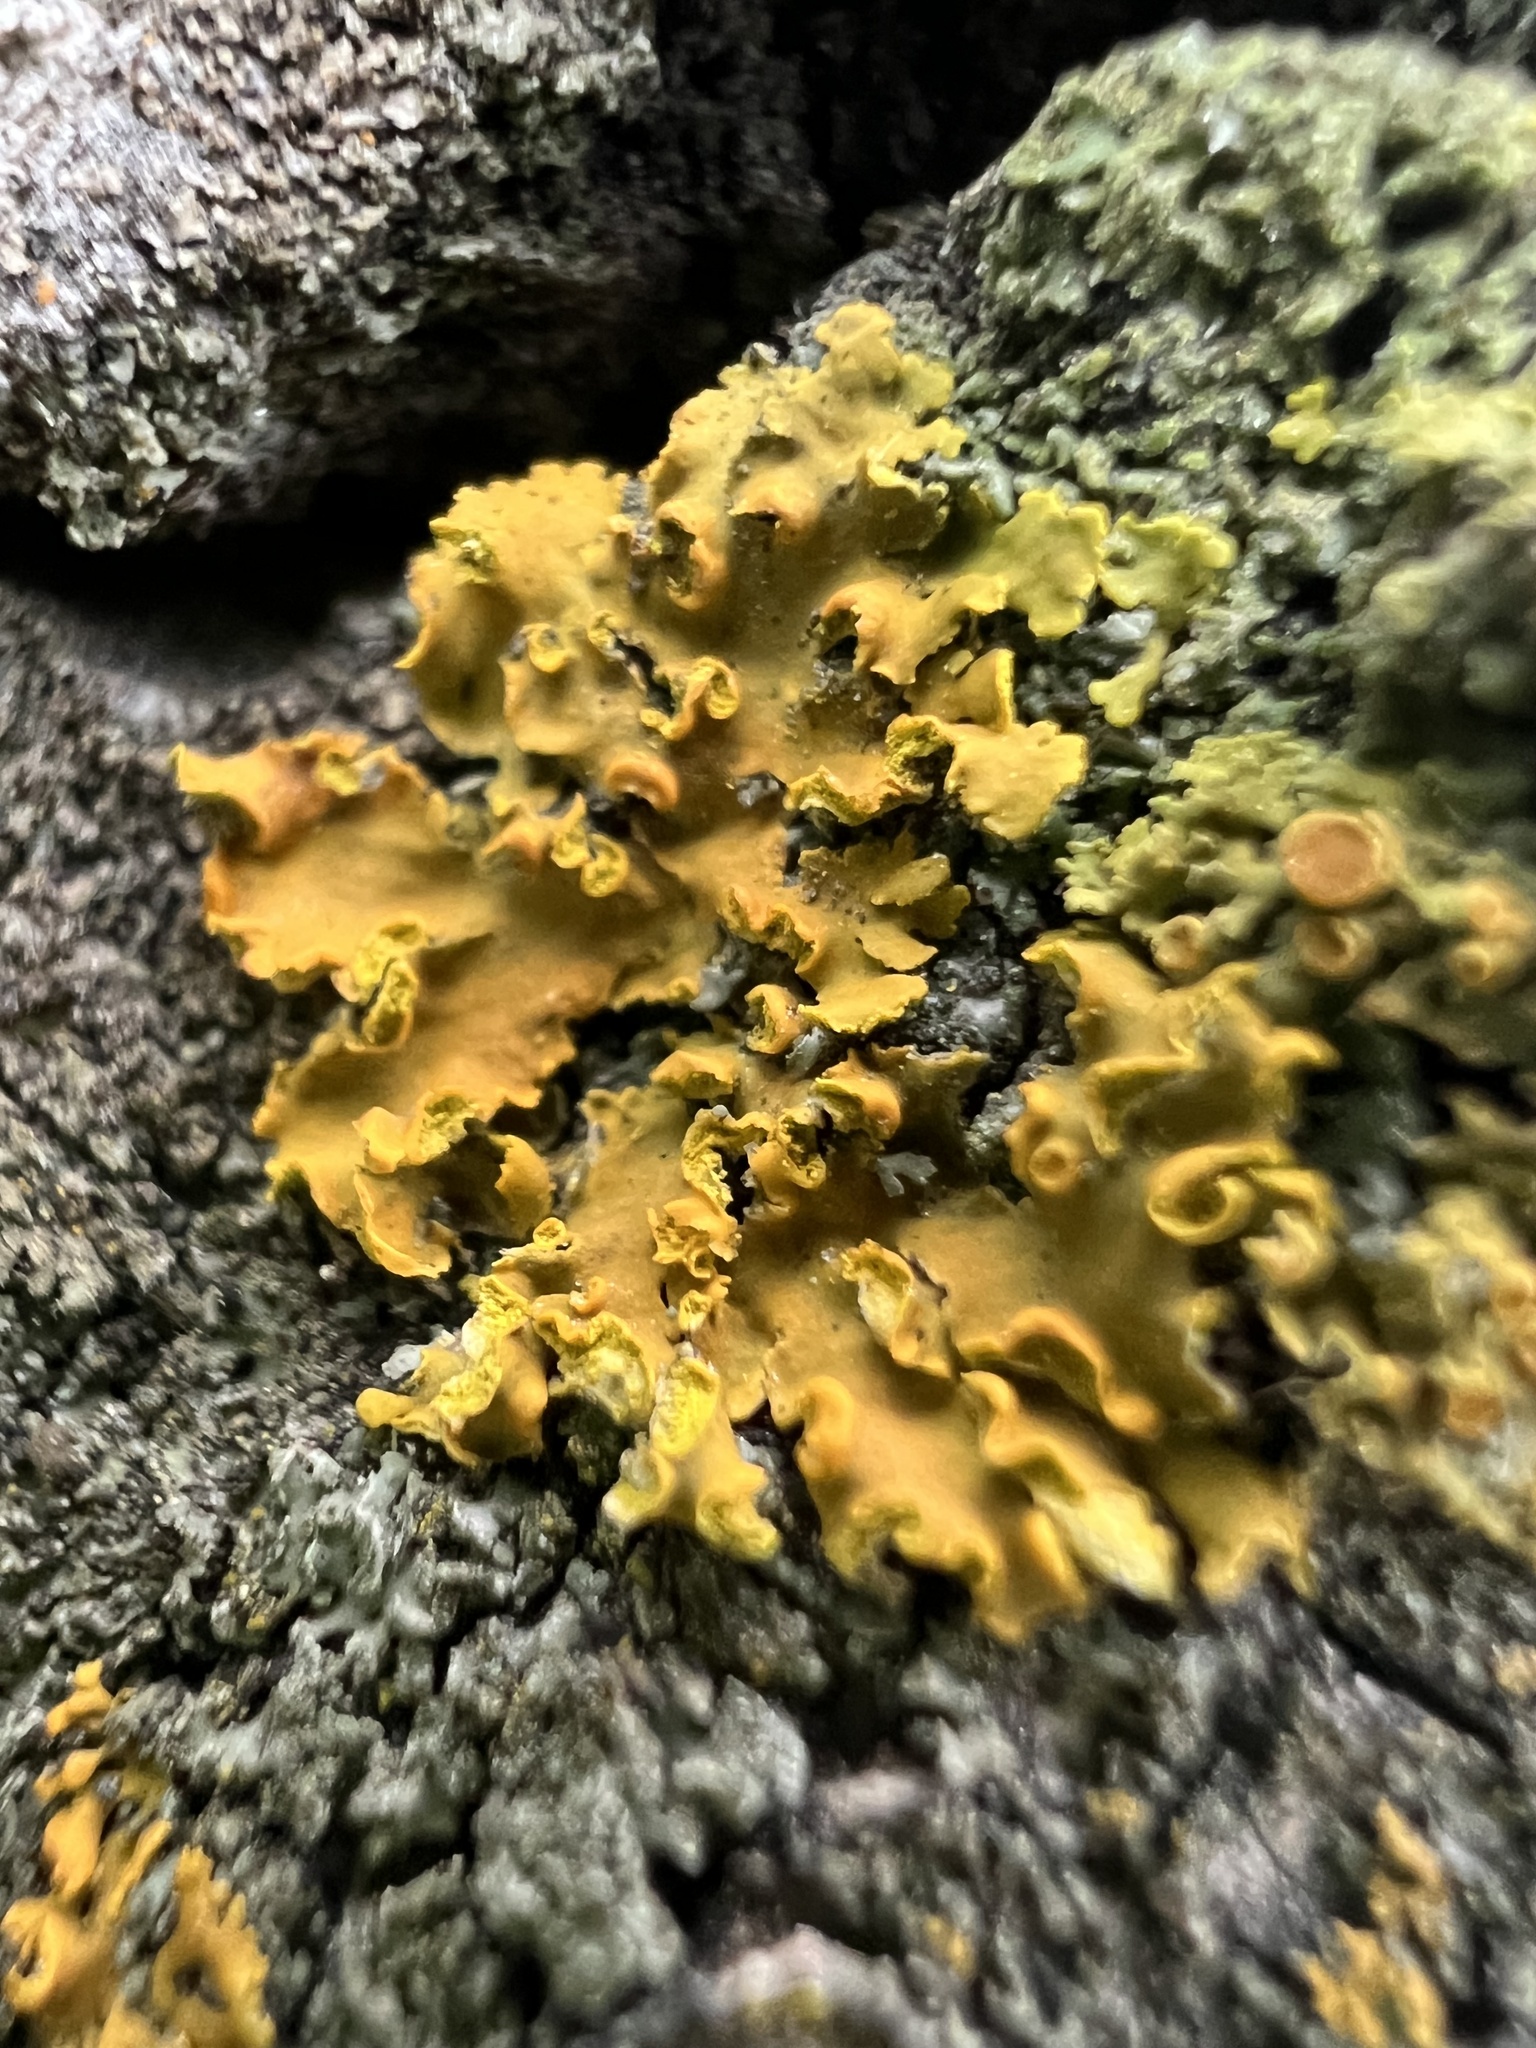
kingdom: Fungi
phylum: Ascomycota
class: Lecanoromycetes
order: Teloschistales
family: Teloschistaceae
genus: Oxneria
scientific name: Oxneria fallax
